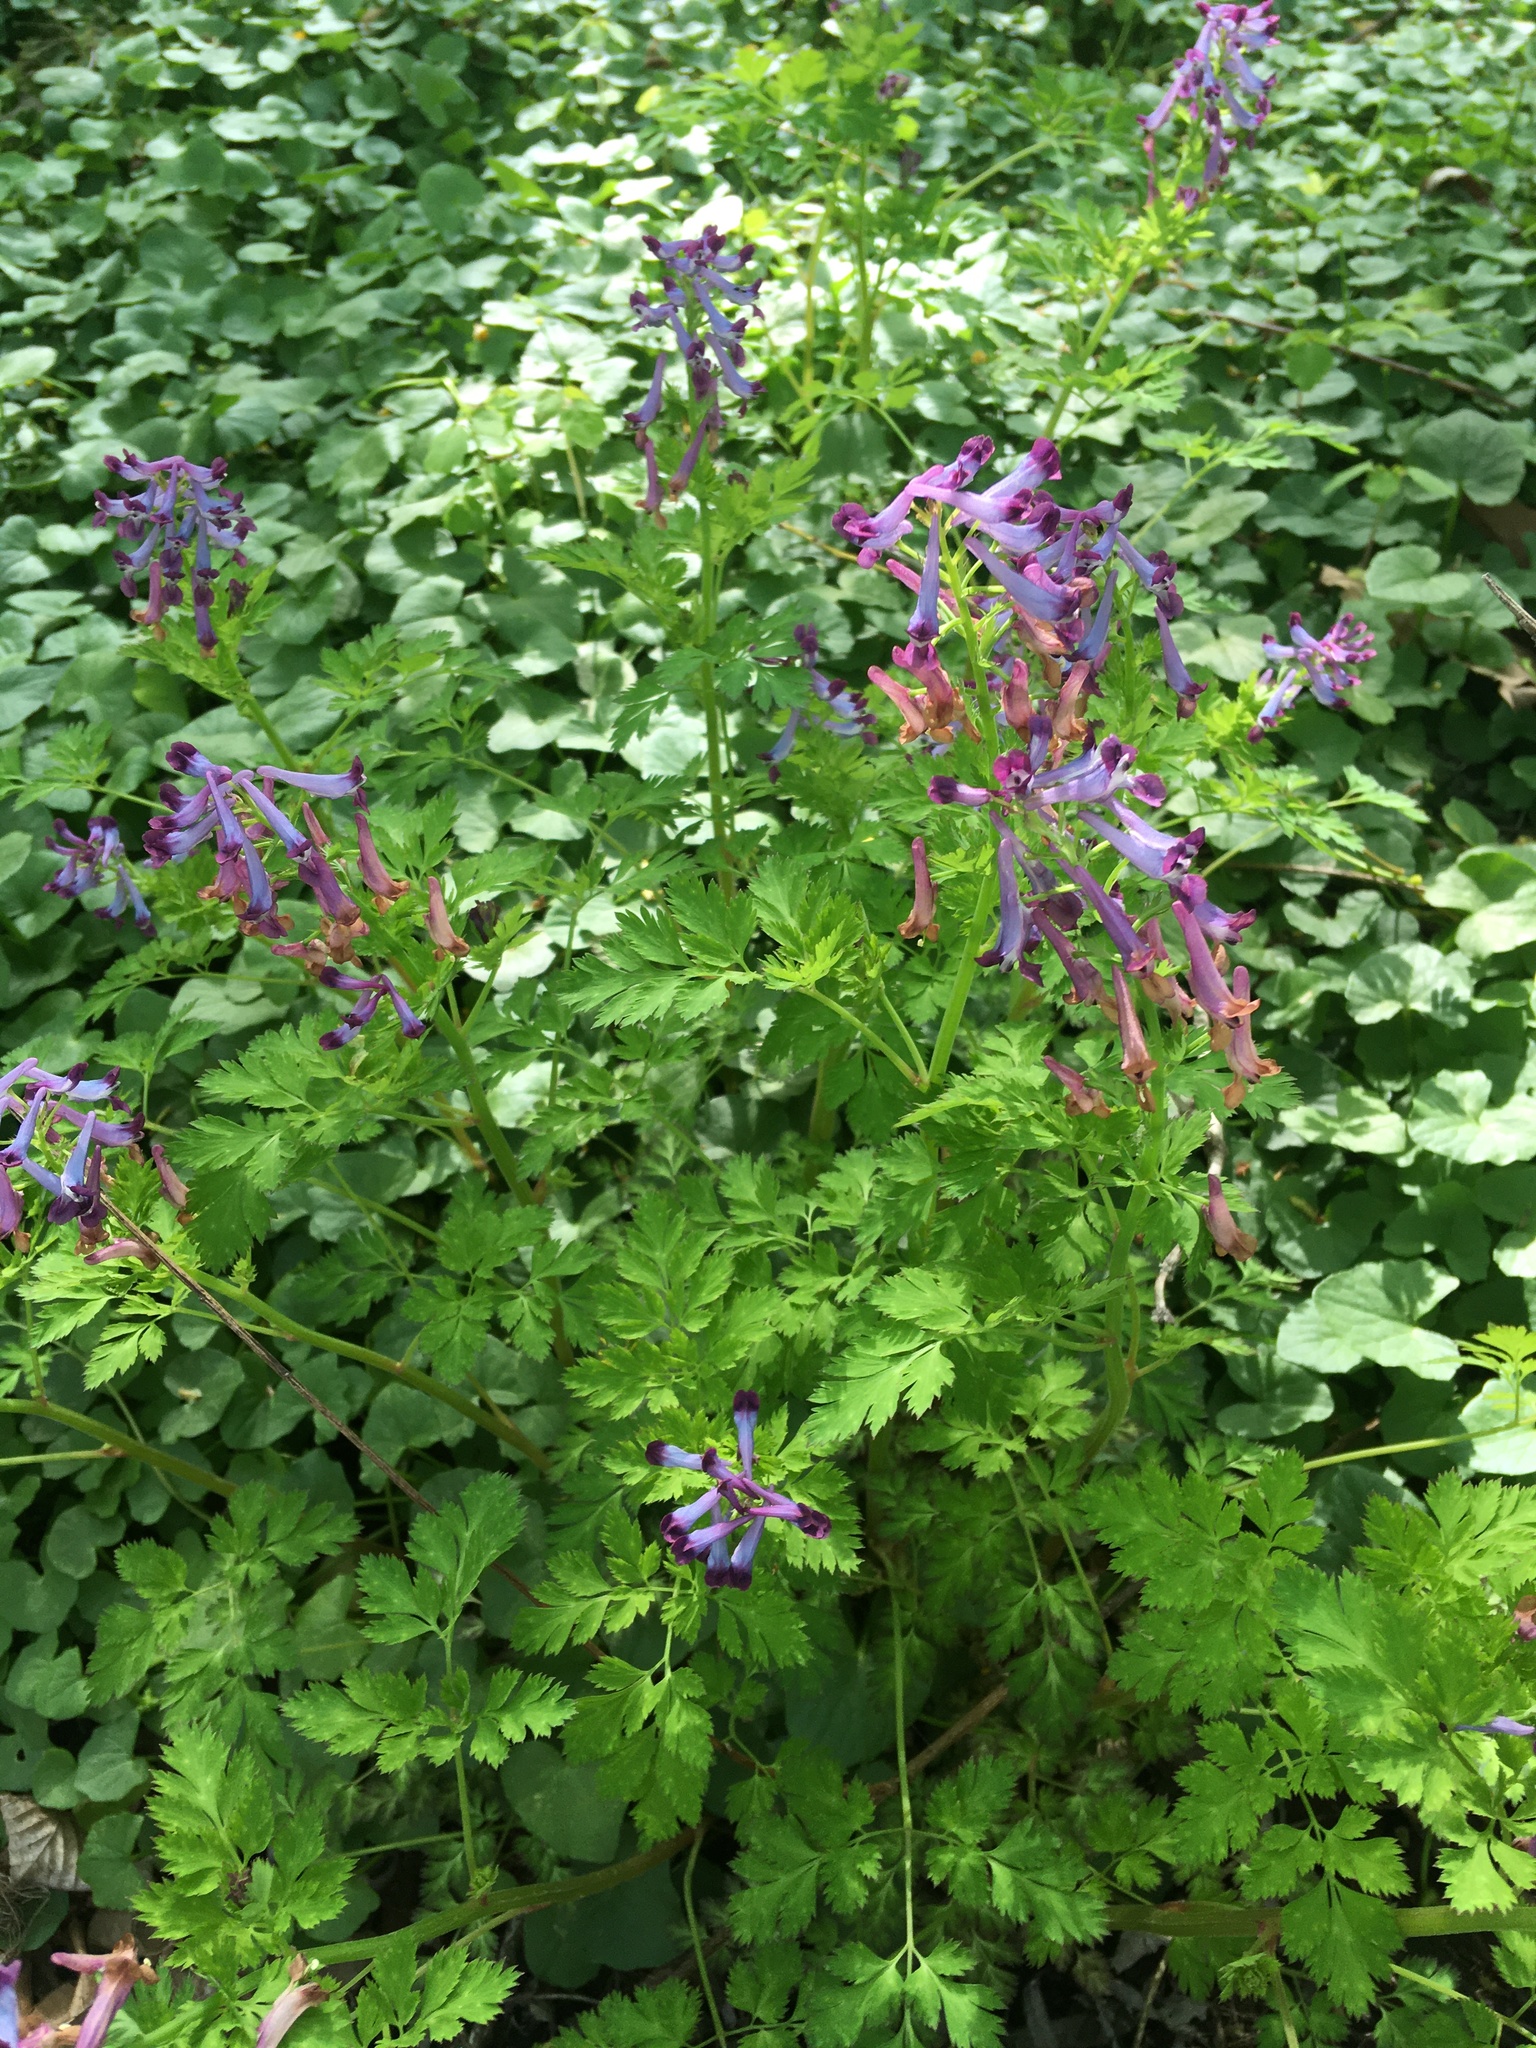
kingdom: Plantae
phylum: Tracheophyta
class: Magnoliopsida
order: Ranunculales
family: Papaveraceae
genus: Corydalis
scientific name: Corydalis incisa
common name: Incised fumewort
